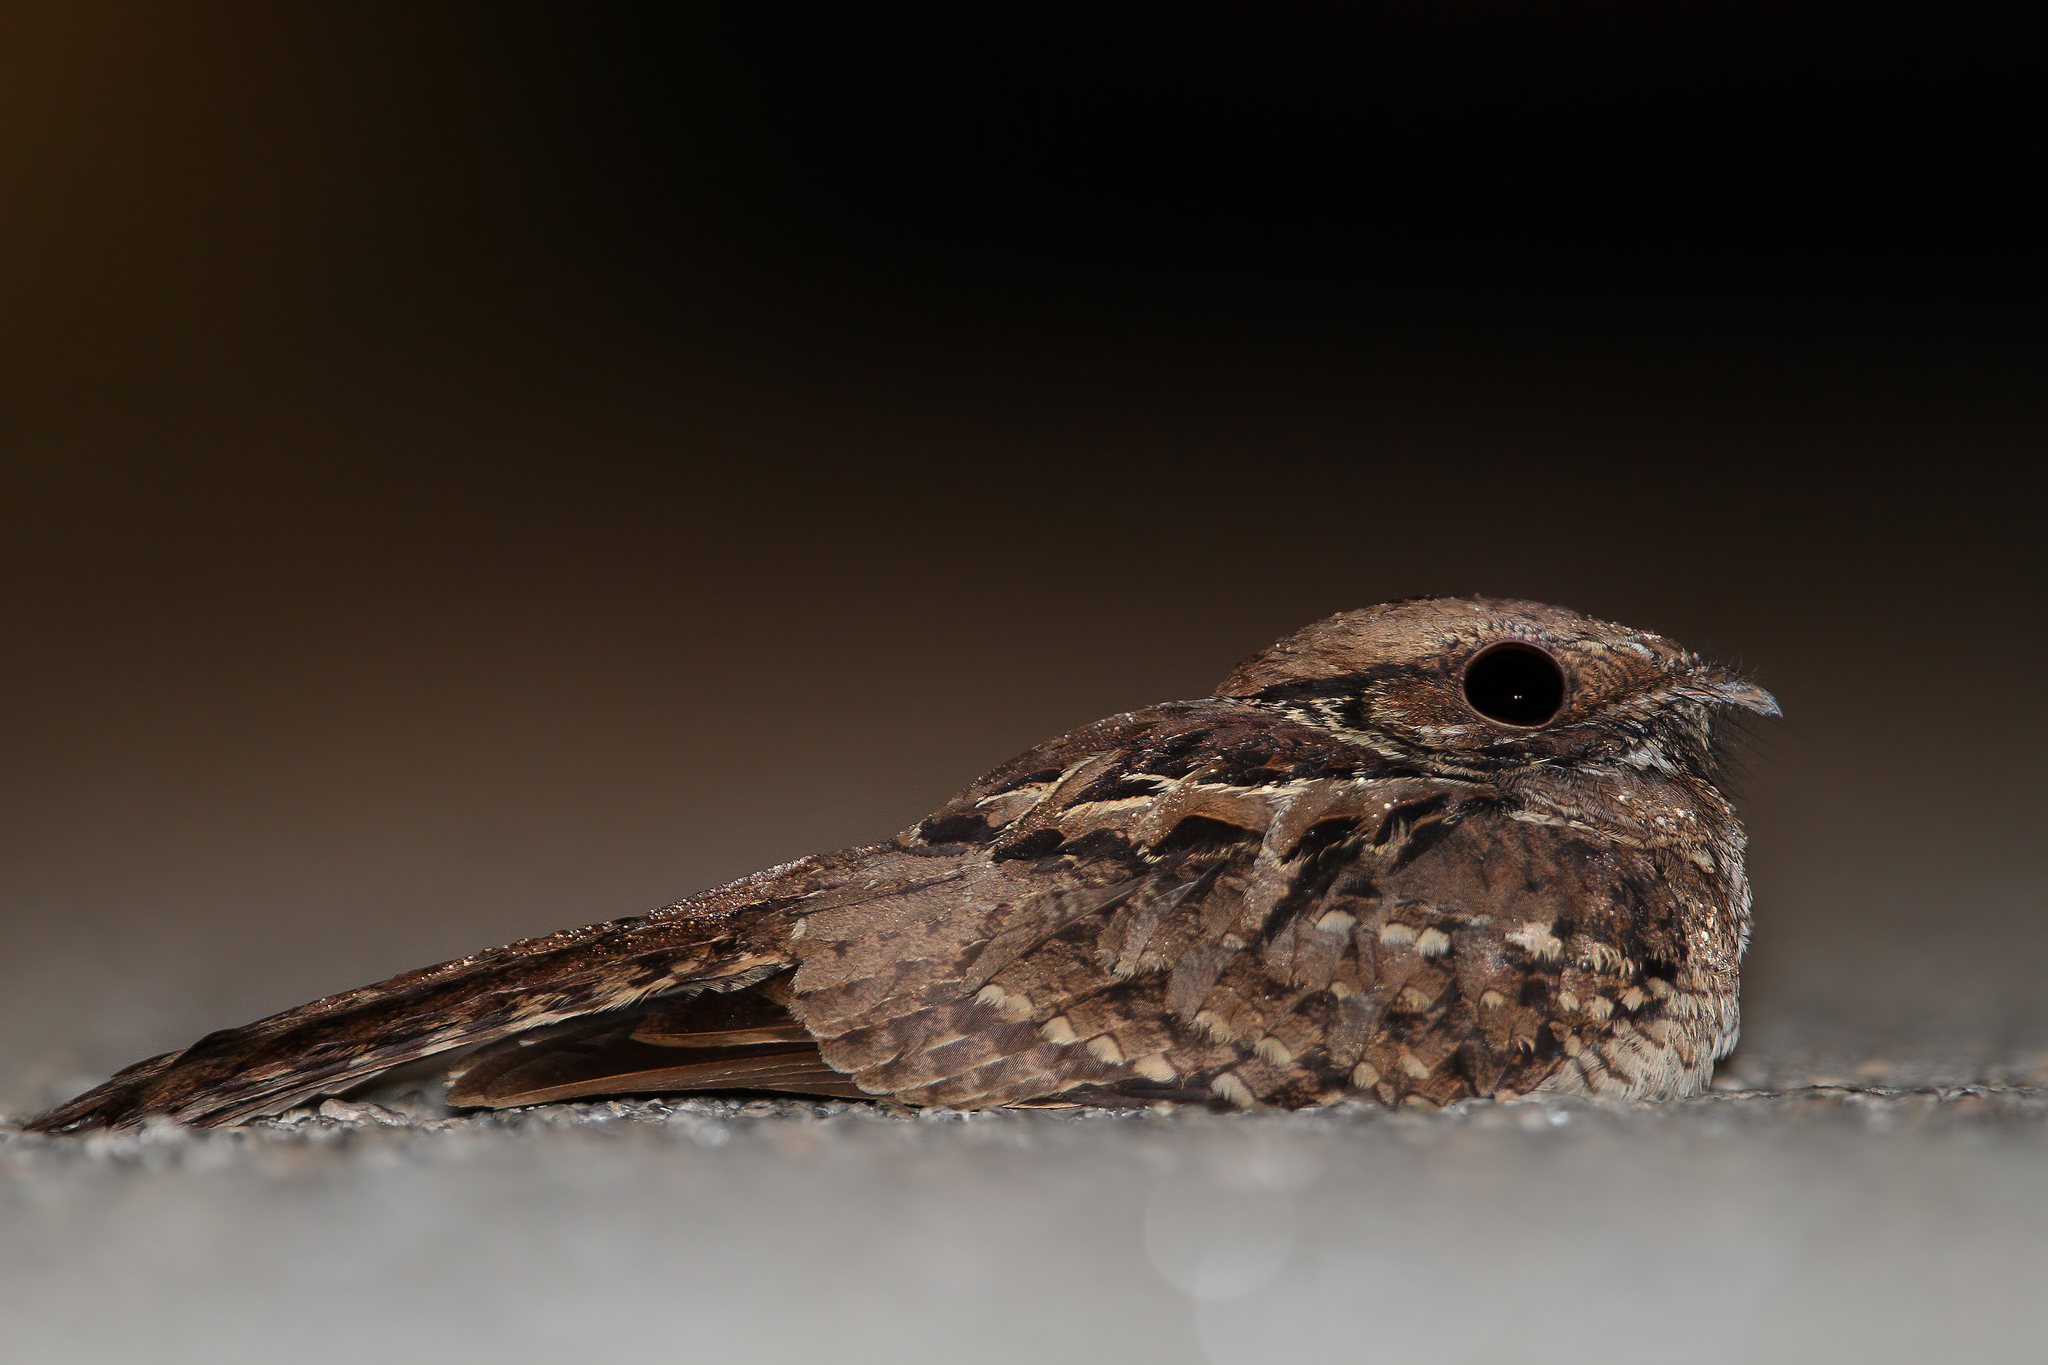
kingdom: Animalia
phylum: Chordata
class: Aves
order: Caprimulgiformes
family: Caprimulgidae
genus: Nyctidromus
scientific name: Nyctidromus albicollis
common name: Pauraque
